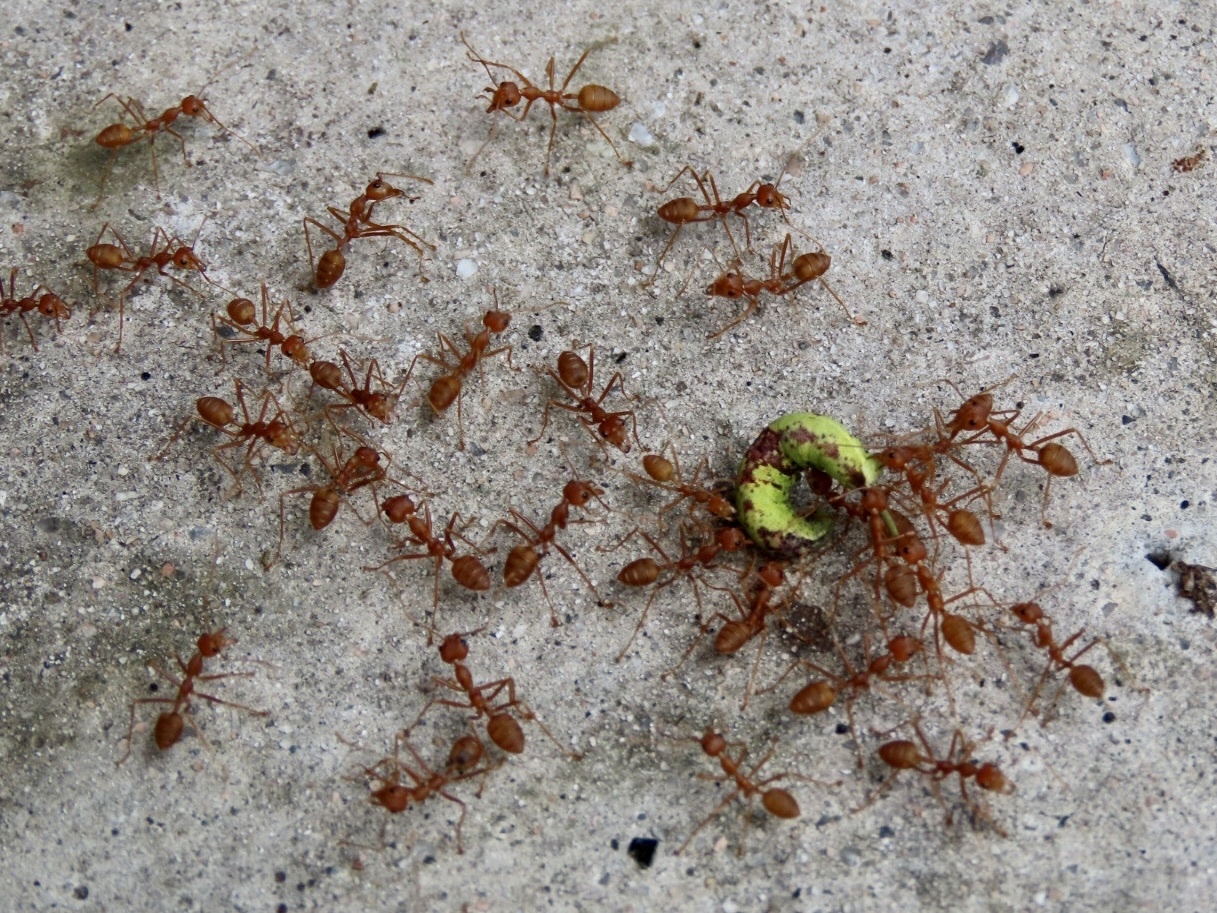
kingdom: Animalia
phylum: Arthropoda
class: Insecta
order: Hymenoptera
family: Formicidae
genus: Oecophylla
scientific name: Oecophylla smaragdina
